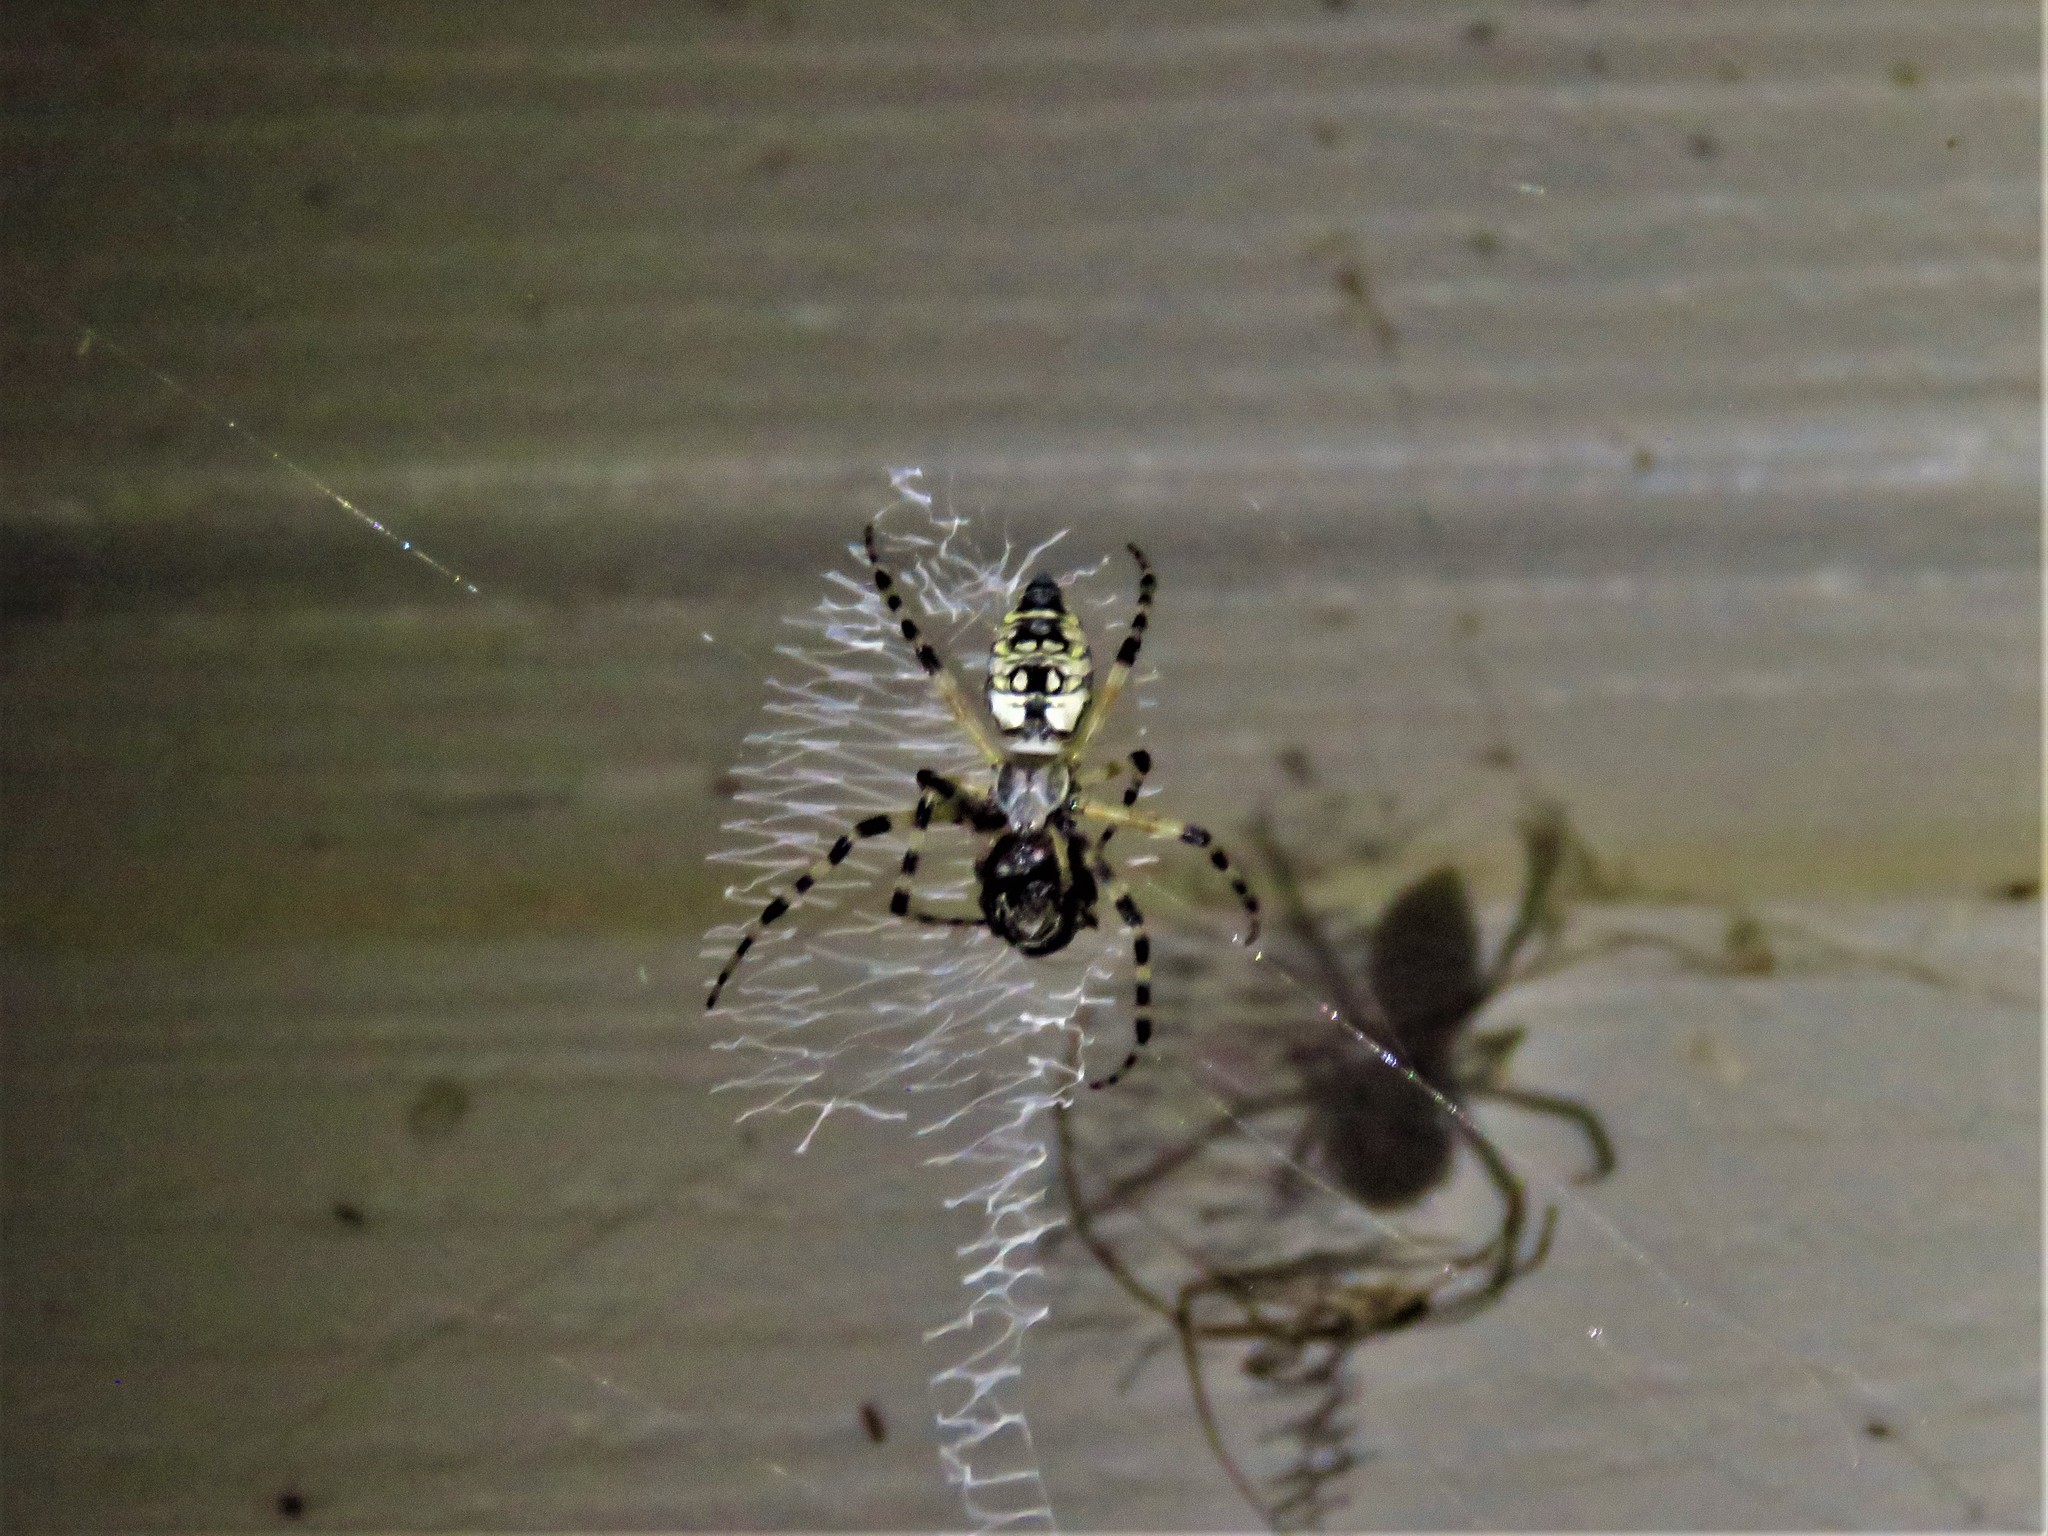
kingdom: Animalia
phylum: Arthropoda
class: Arachnida
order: Araneae
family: Araneidae
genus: Argiope
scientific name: Argiope aurantia
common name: Orb weavers
